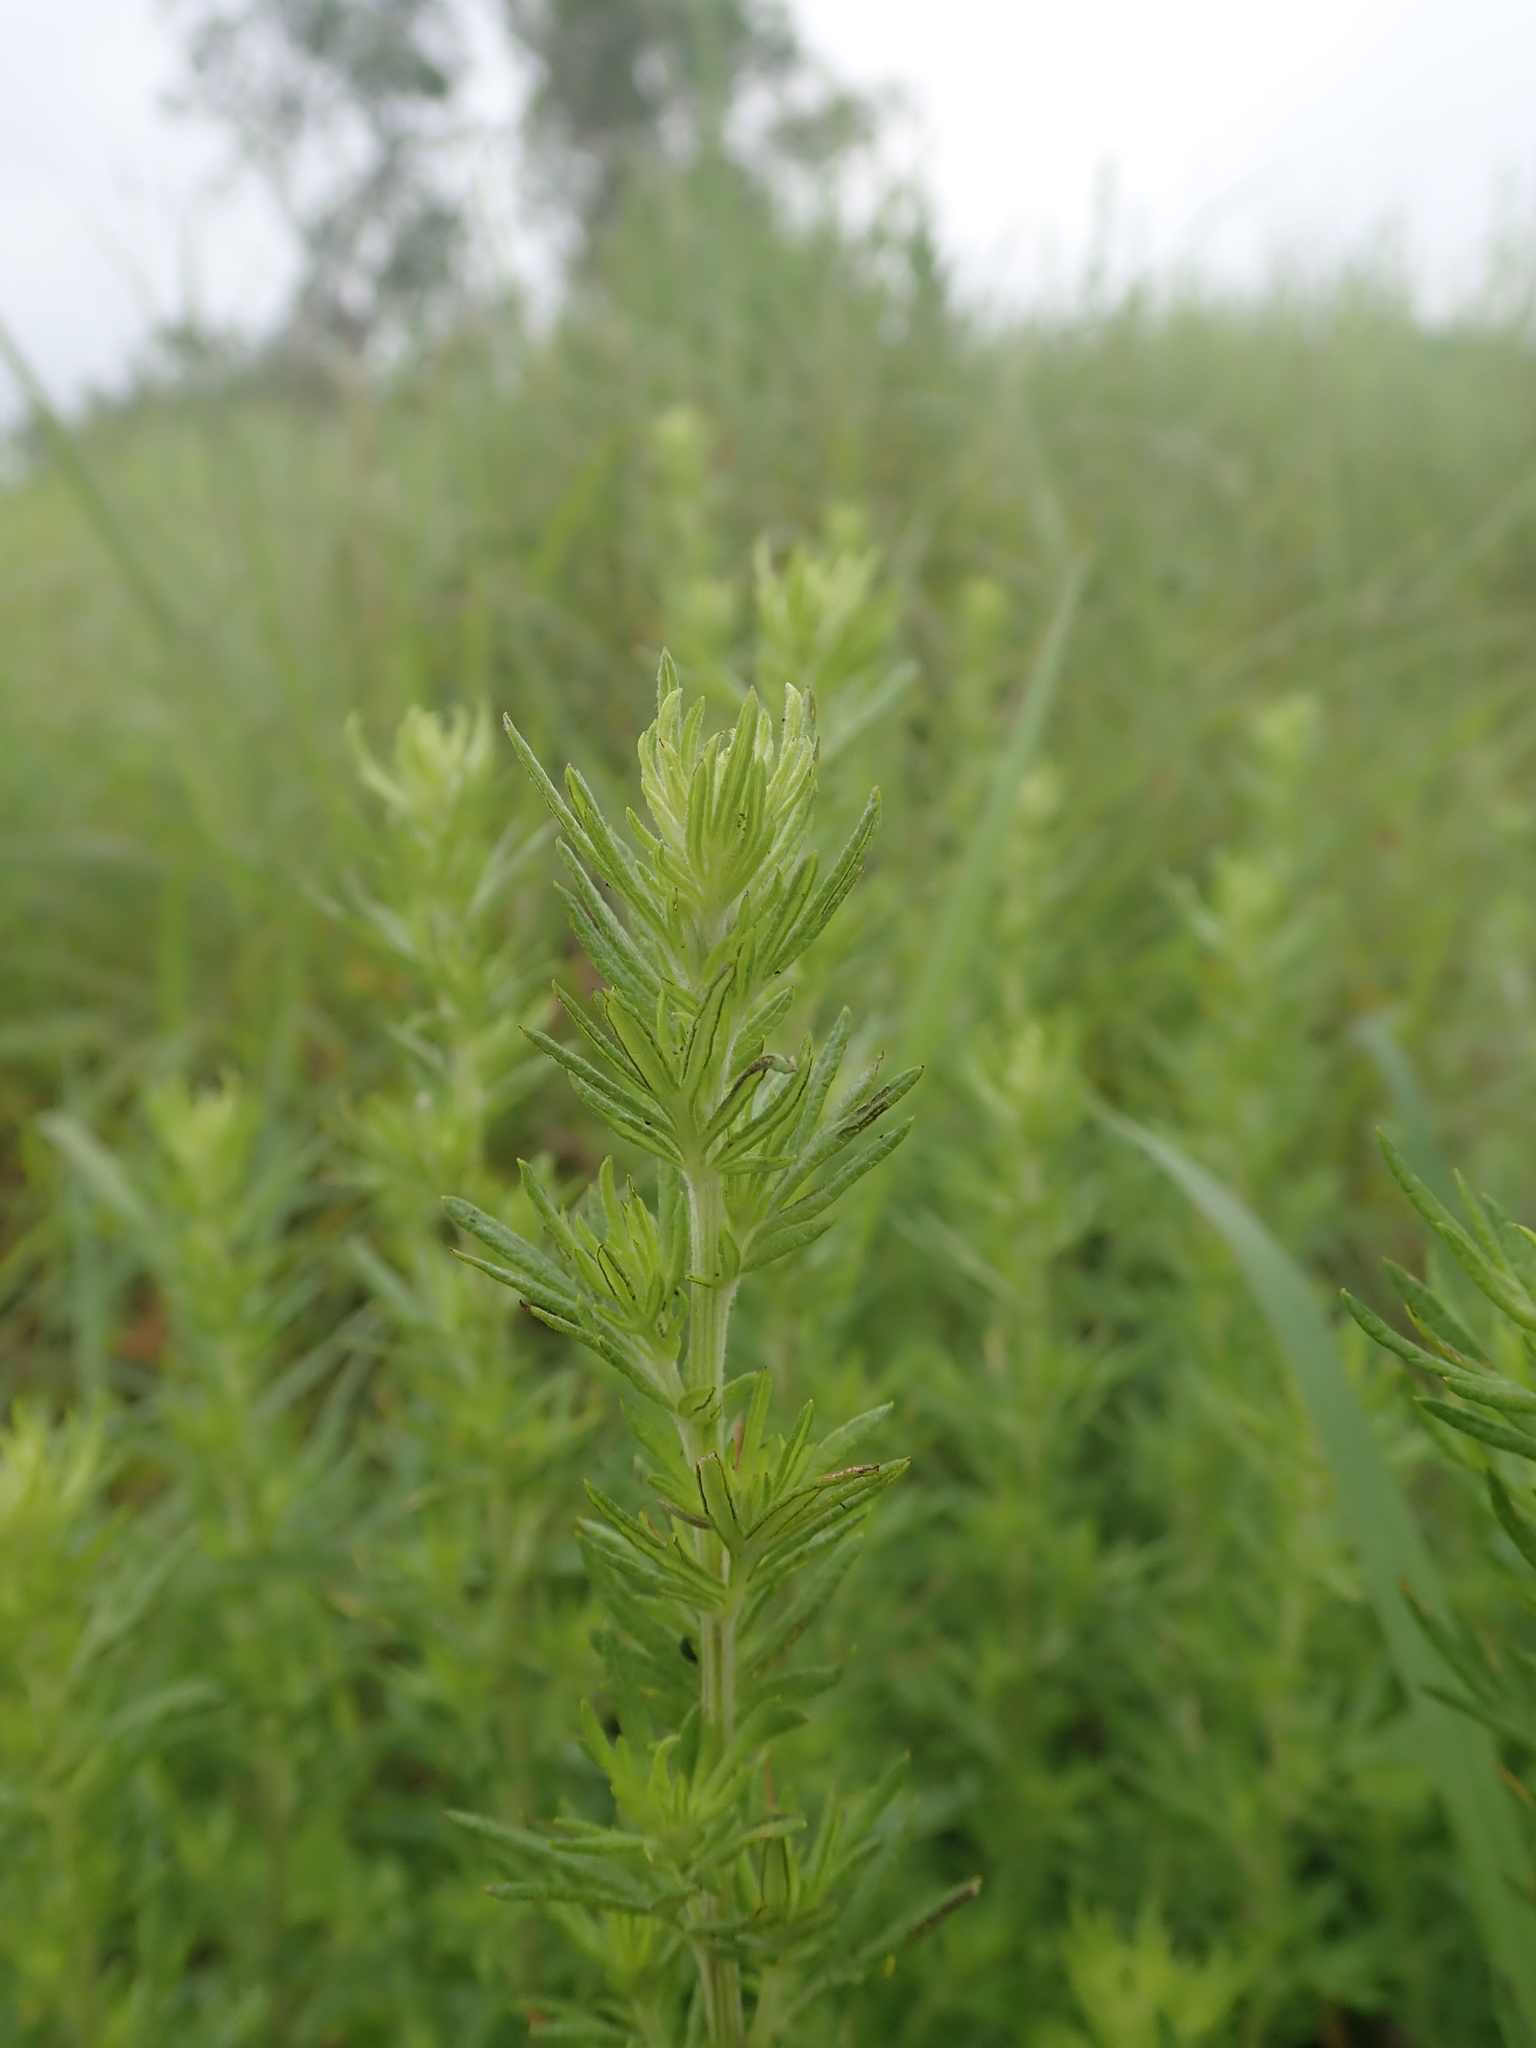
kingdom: Plantae
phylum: Tracheophyta
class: Magnoliopsida
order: Asterales
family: Asteraceae
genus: Artemisia
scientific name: Artemisia lancea
